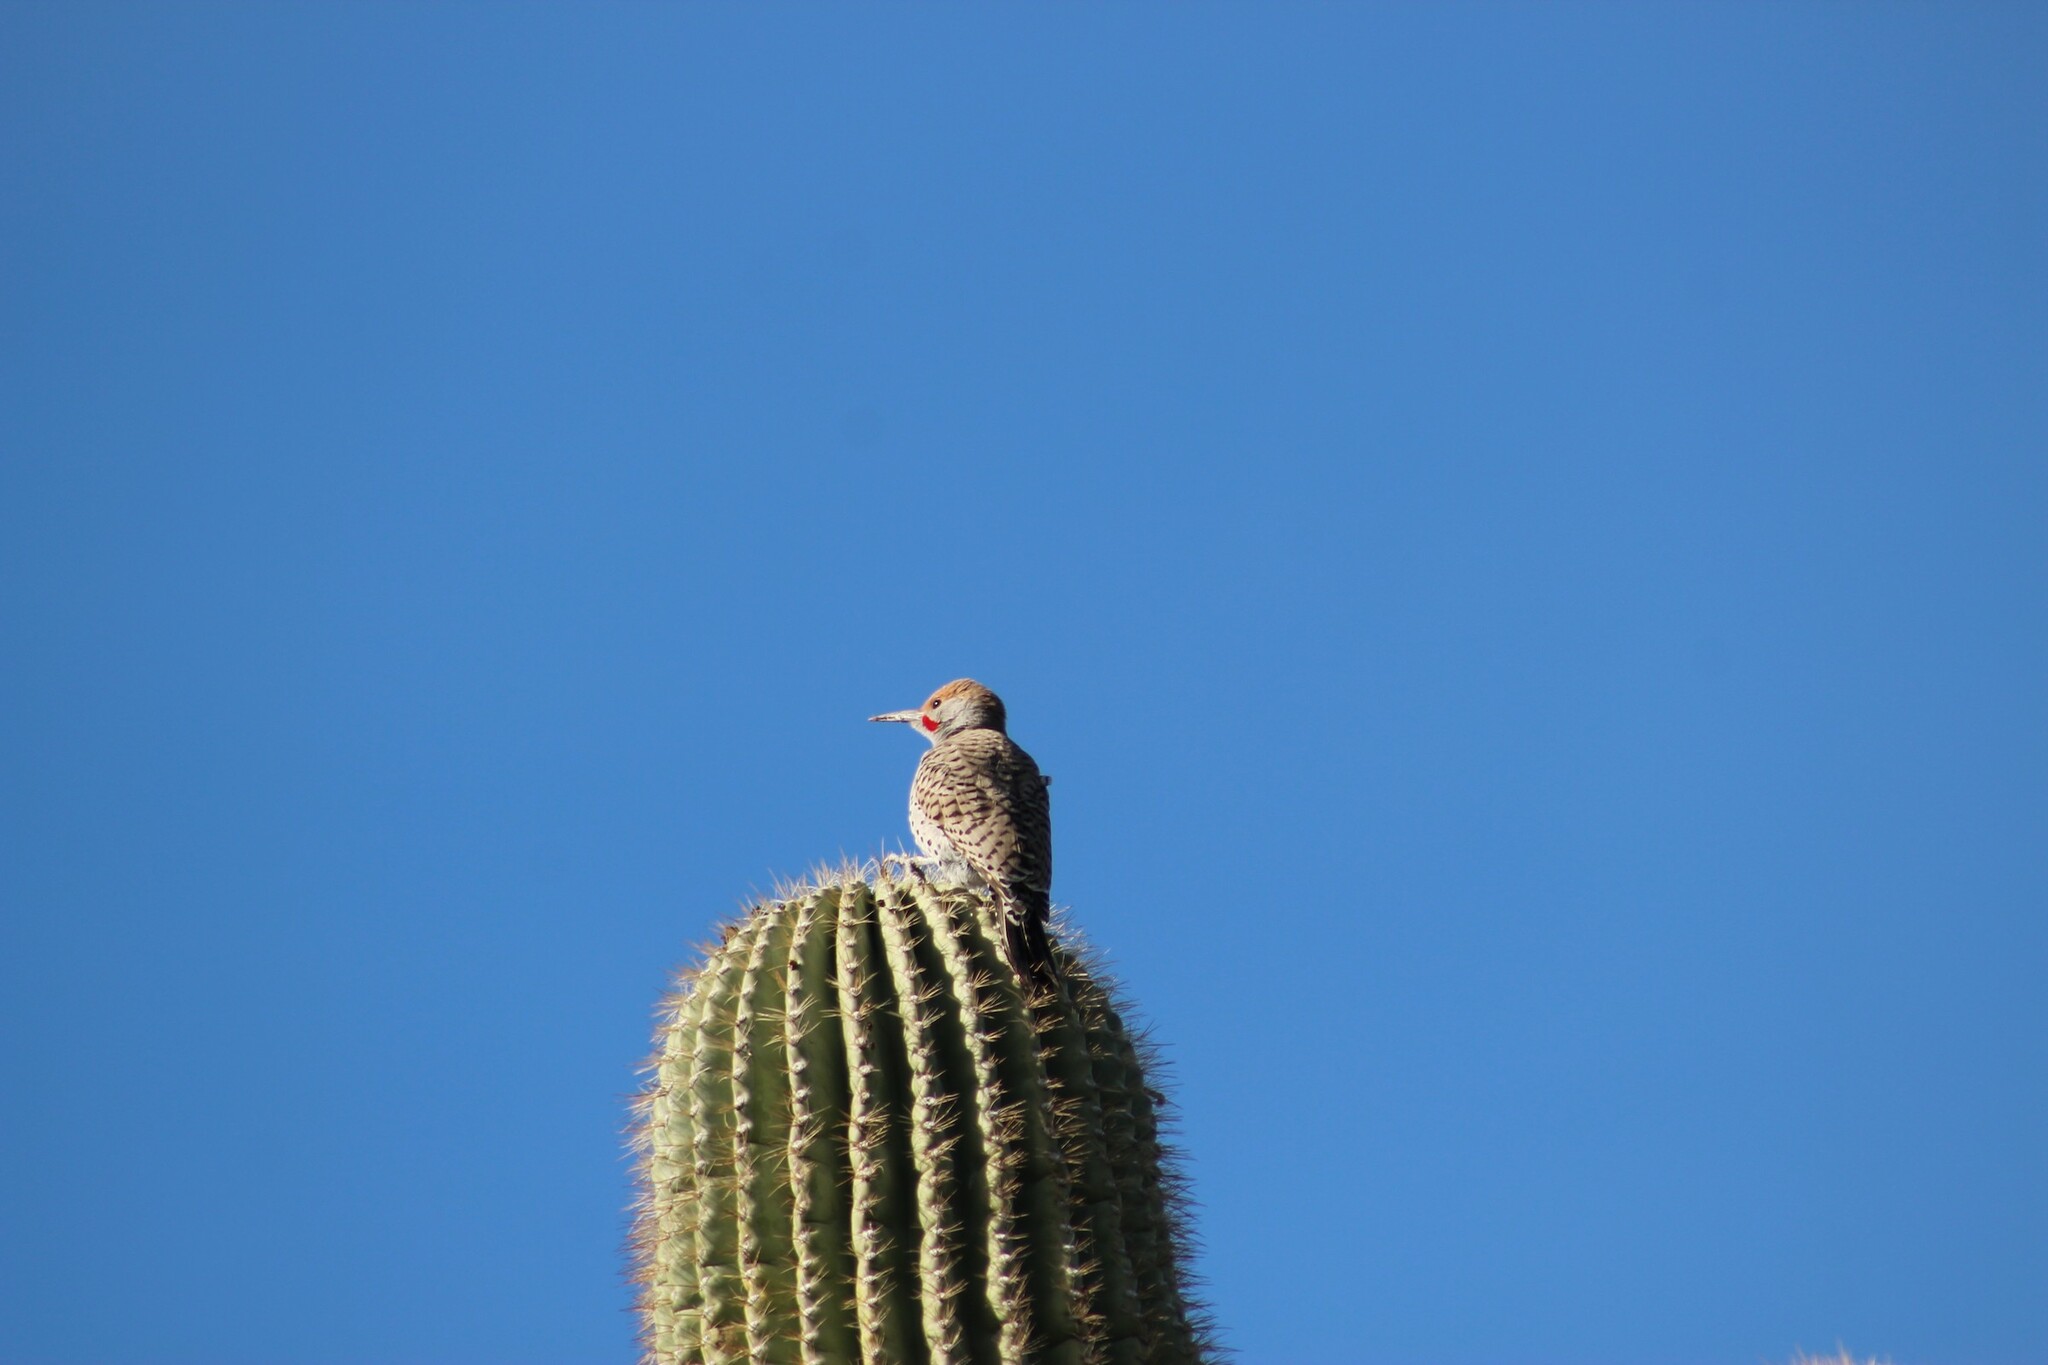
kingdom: Animalia
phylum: Chordata
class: Aves
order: Piciformes
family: Picidae
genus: Colaptes
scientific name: Colaptes chrysoides
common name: Gilded flicker
